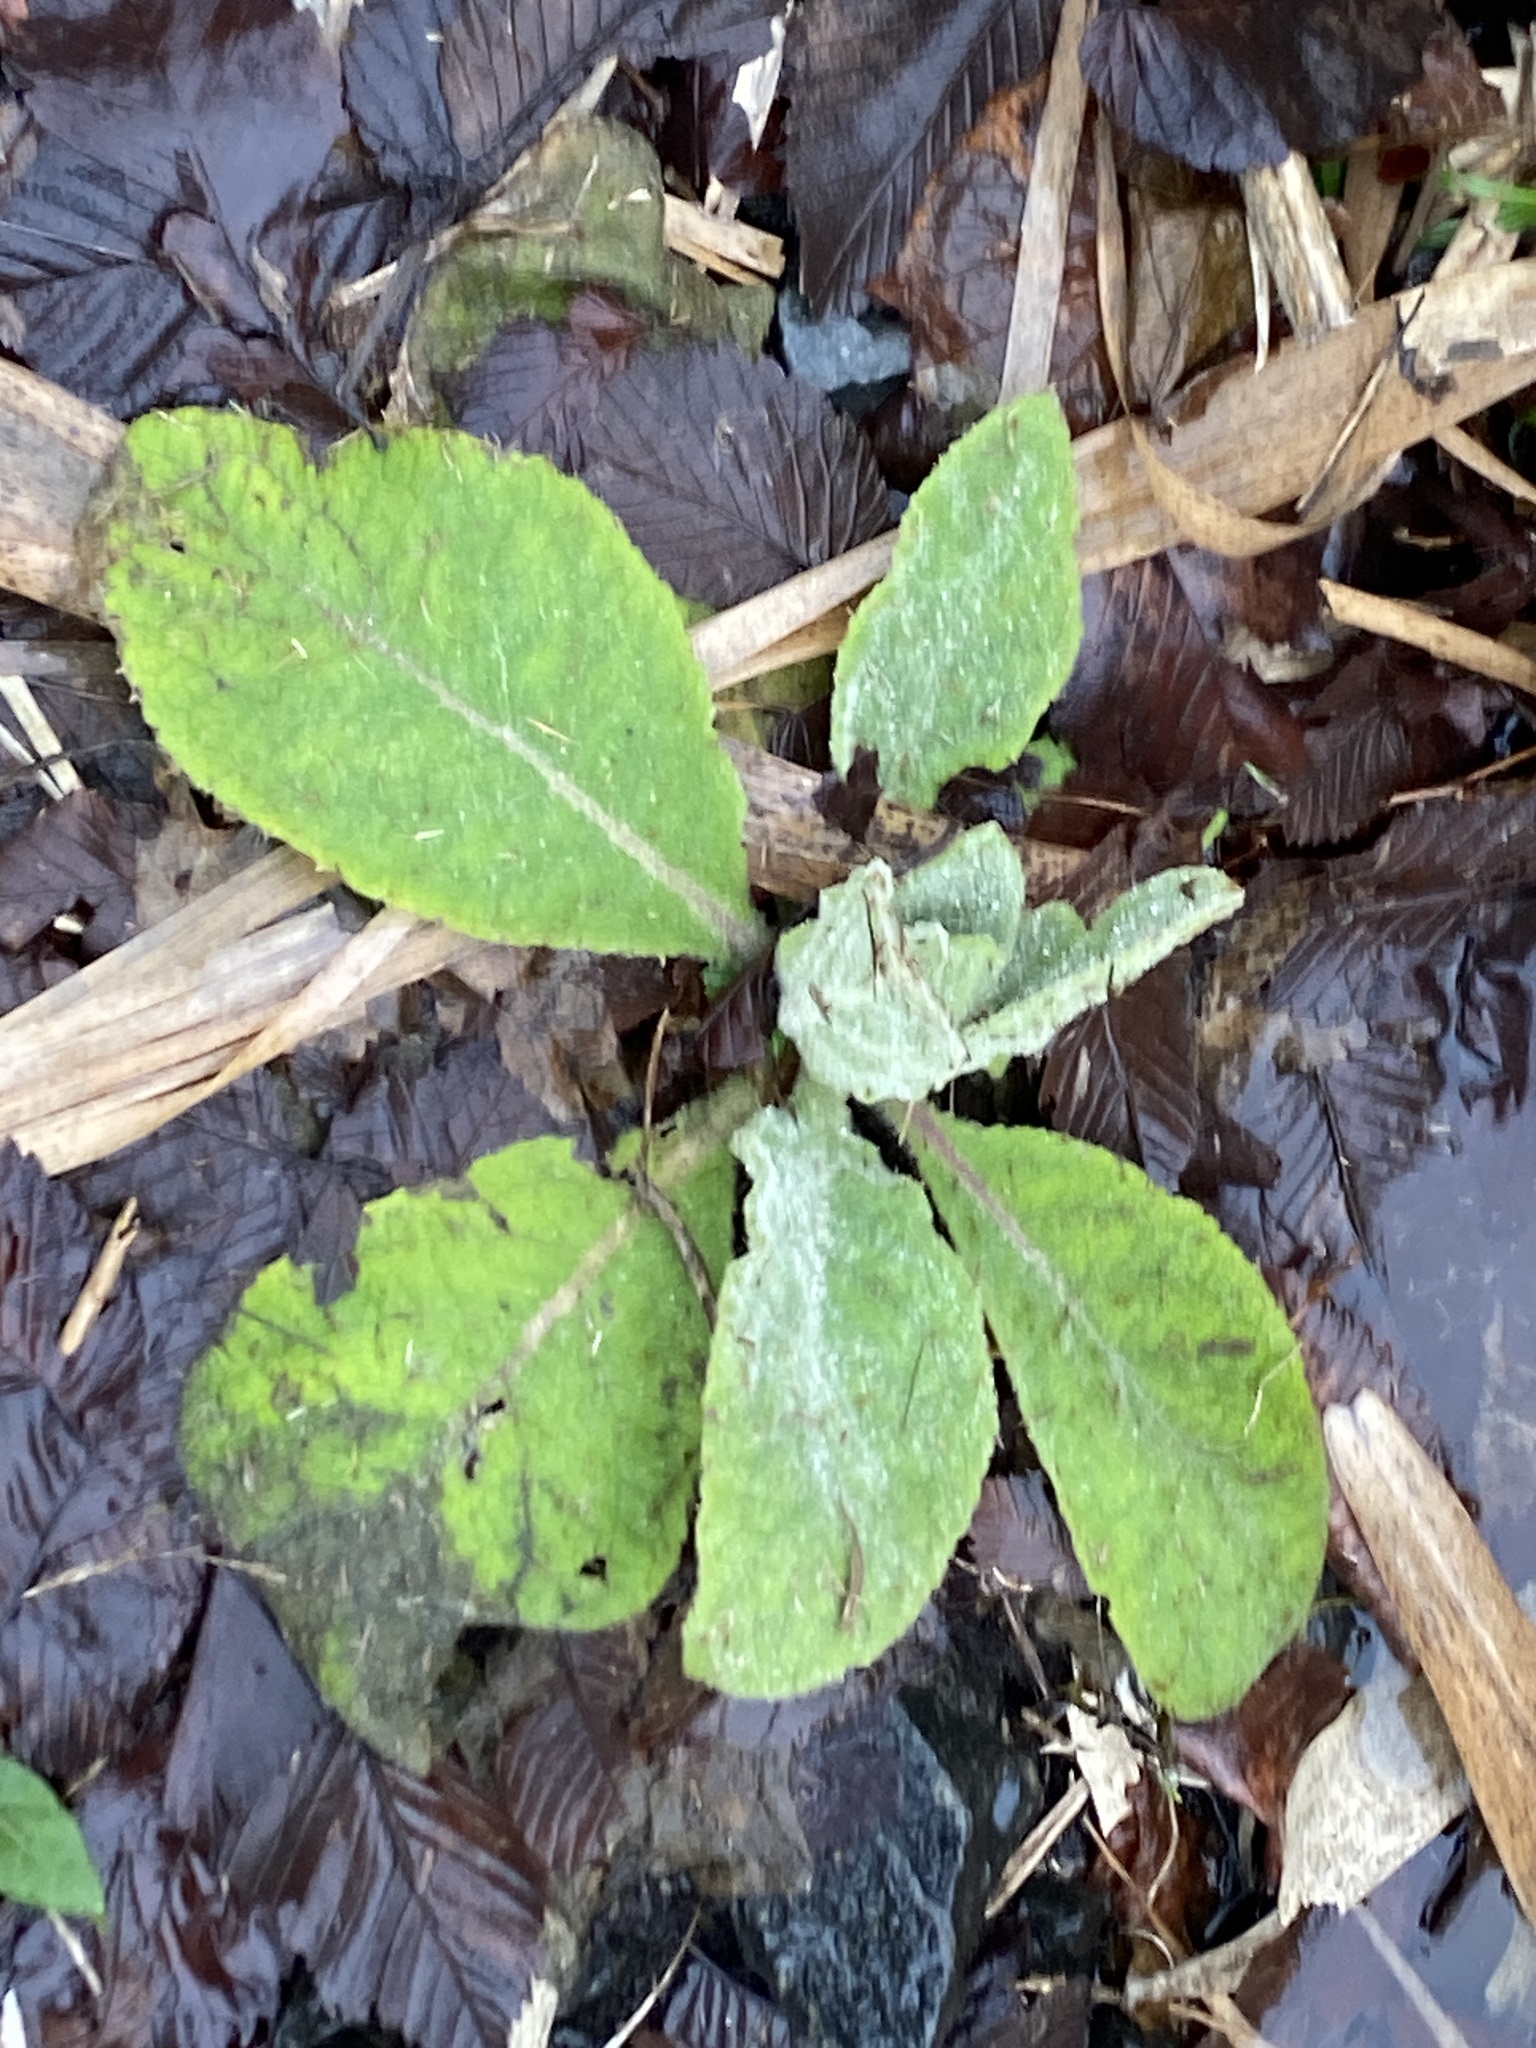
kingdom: Plantae
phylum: Tracheophyta
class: Magnoliopsida
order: Lamiales
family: Scrophulariaceae
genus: Verbascum
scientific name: Verbascum thapsus
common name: Common mullein
